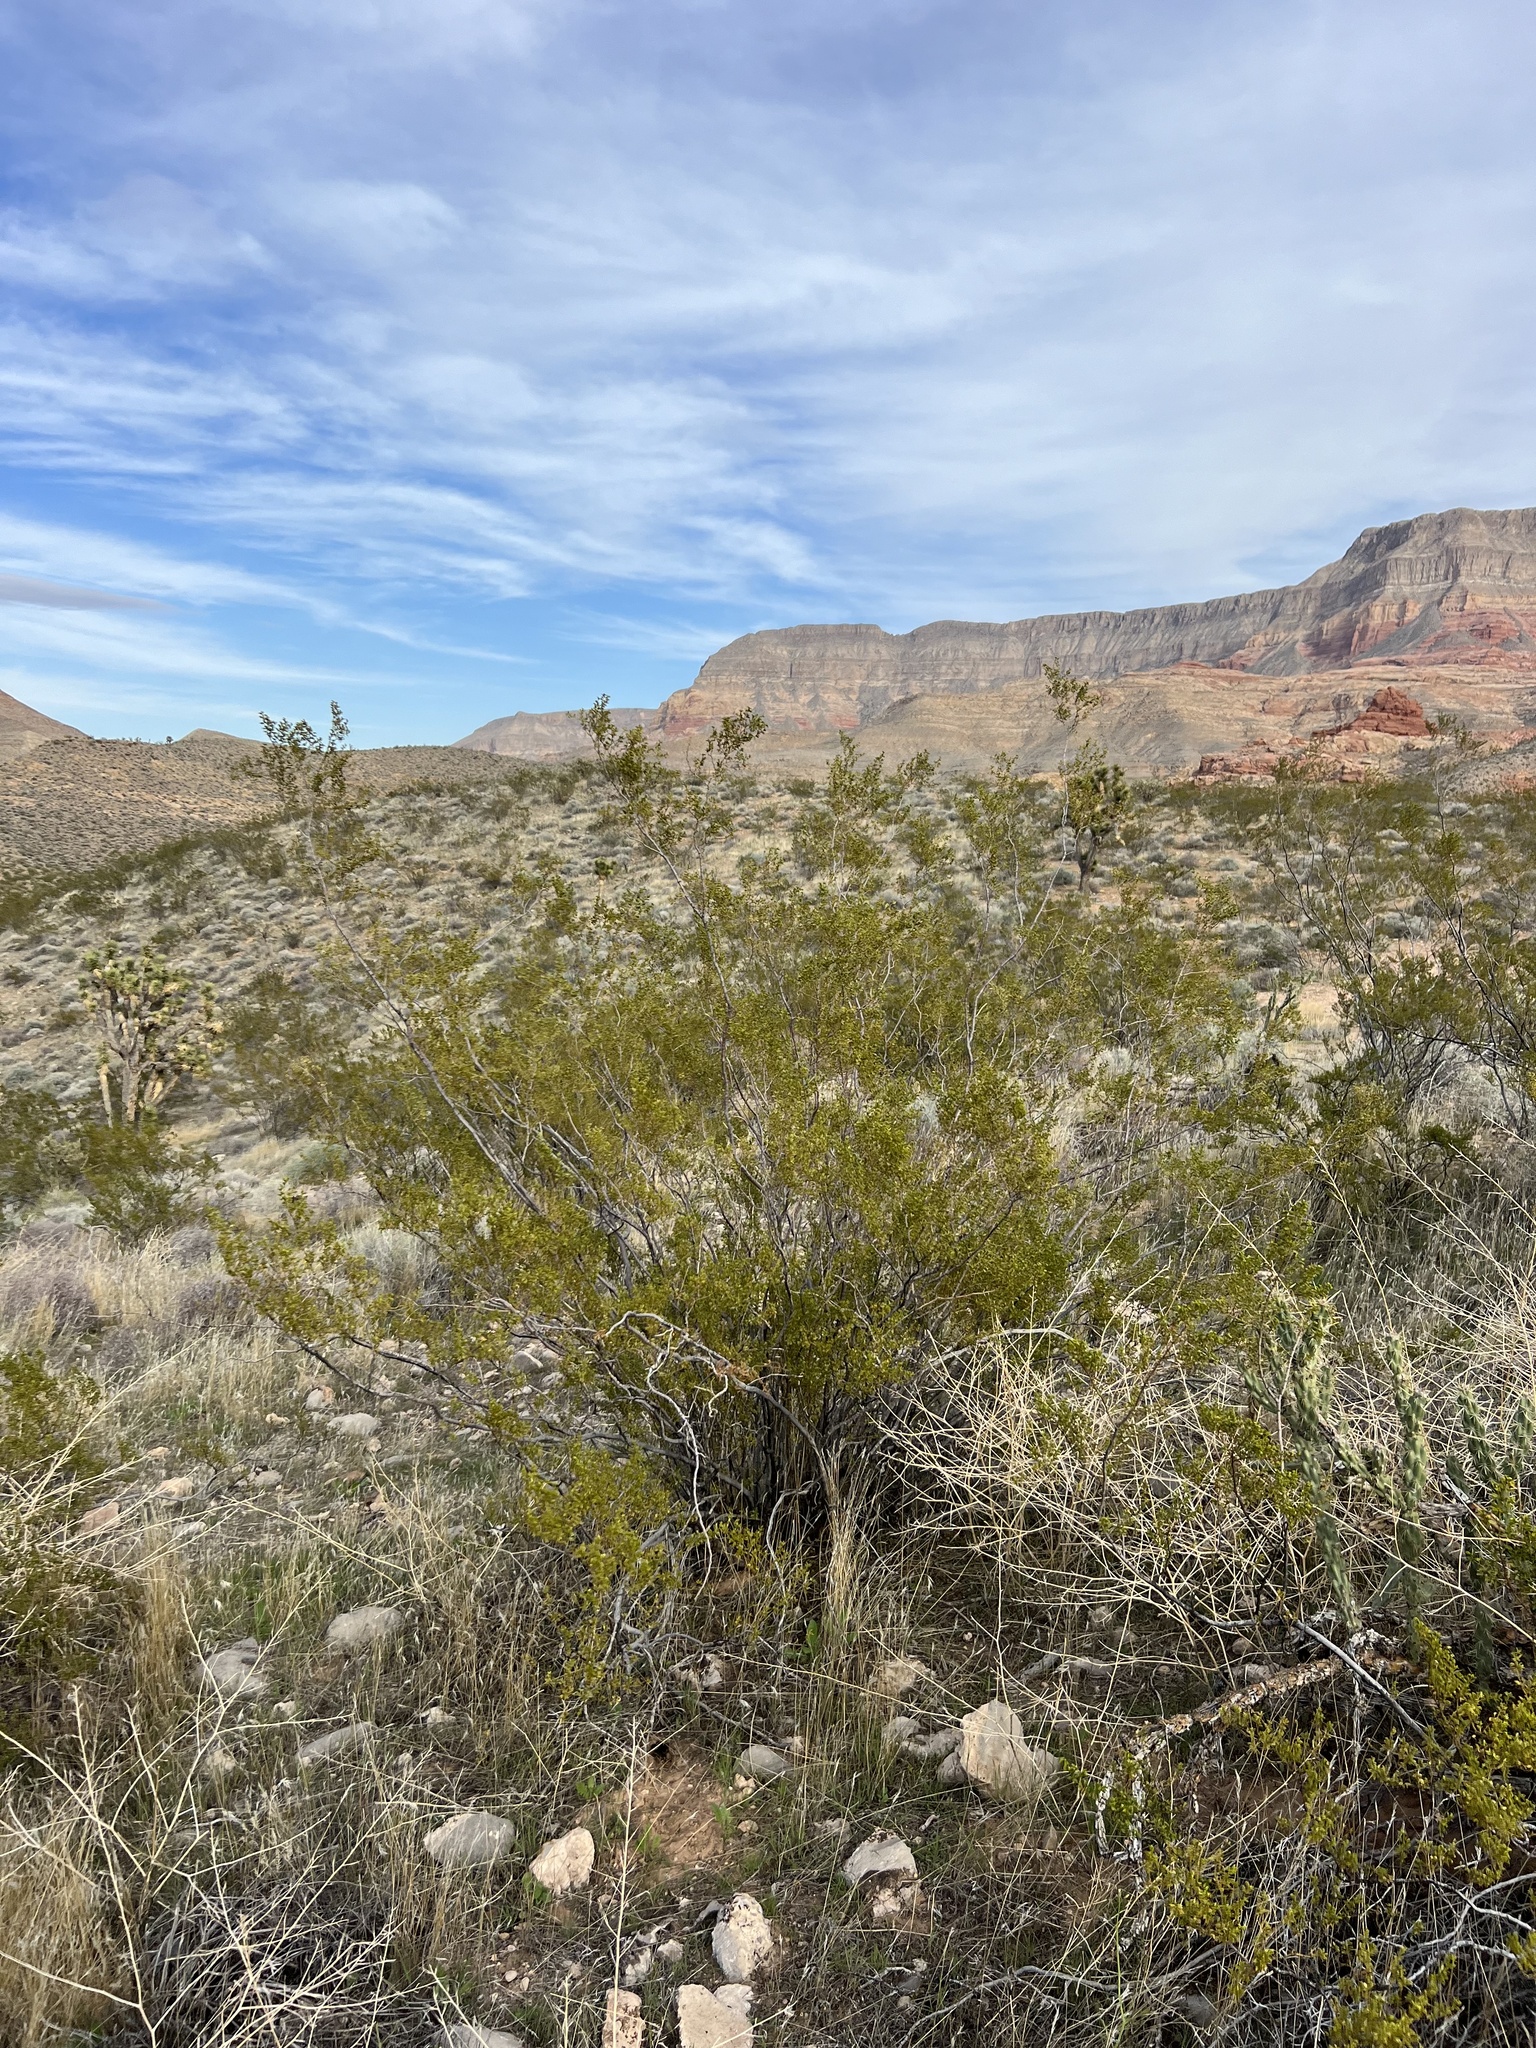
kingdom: Plantae
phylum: Tracheophyta
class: Magnoliopsida
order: Zygophyllales
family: Zygophyllaceae
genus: Larrea
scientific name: Larrea tridentata
